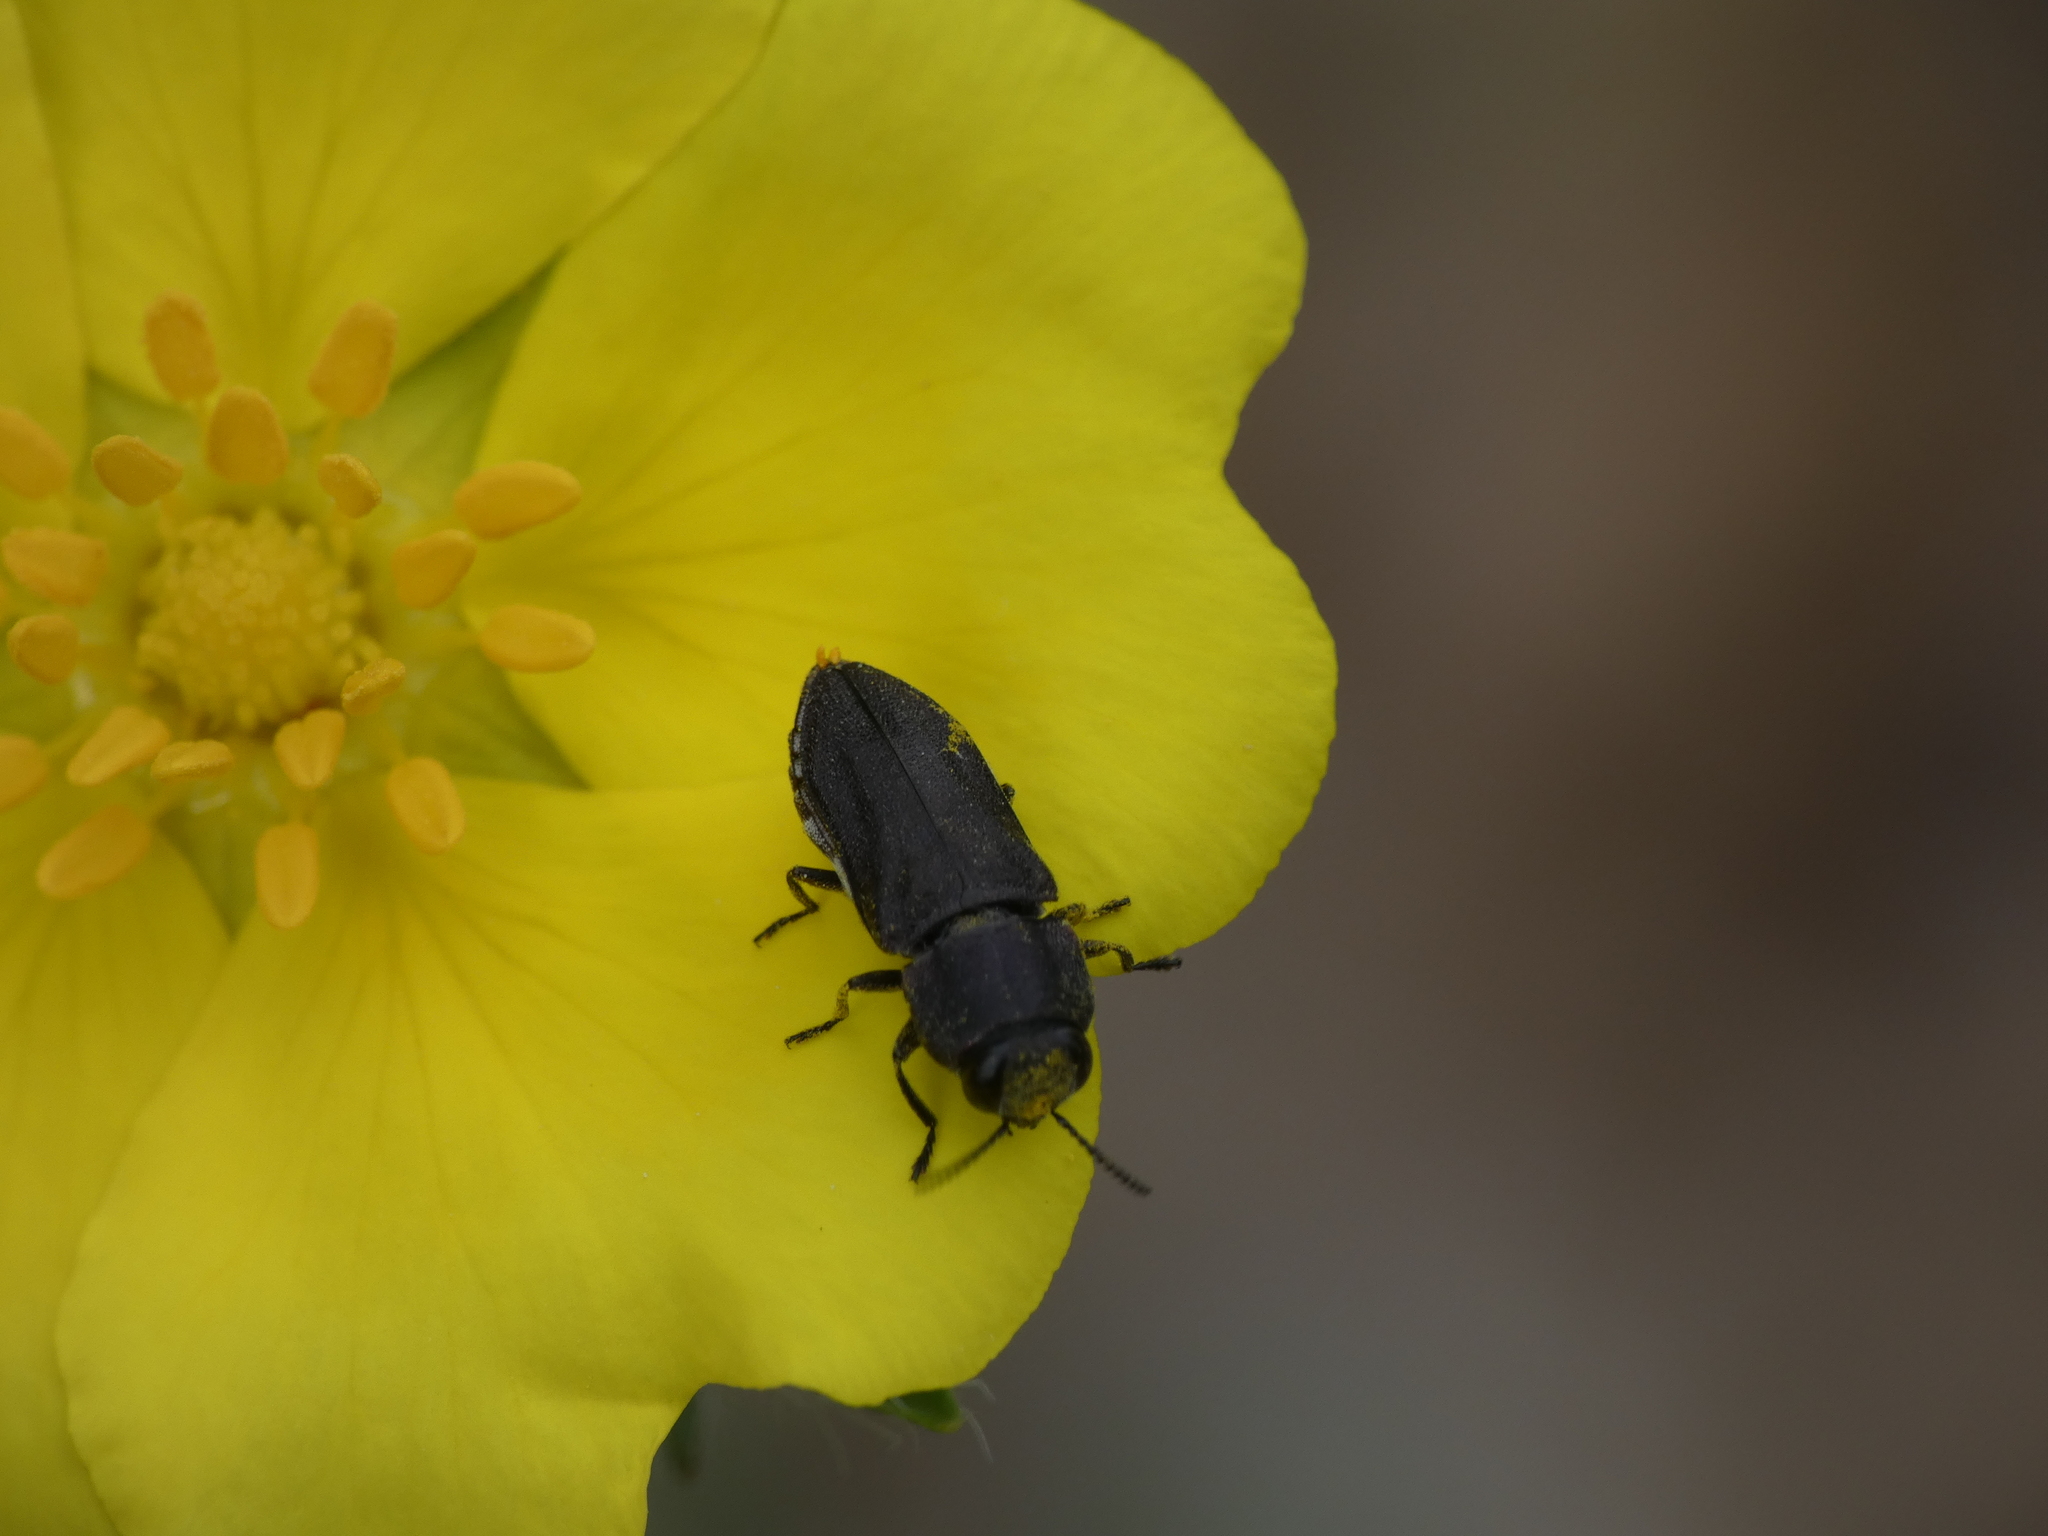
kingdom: Animalia
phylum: Arthropoda
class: Insecta
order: Coleoptera
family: Buprestidae
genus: Anthaxia
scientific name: Anthaxia confusa
